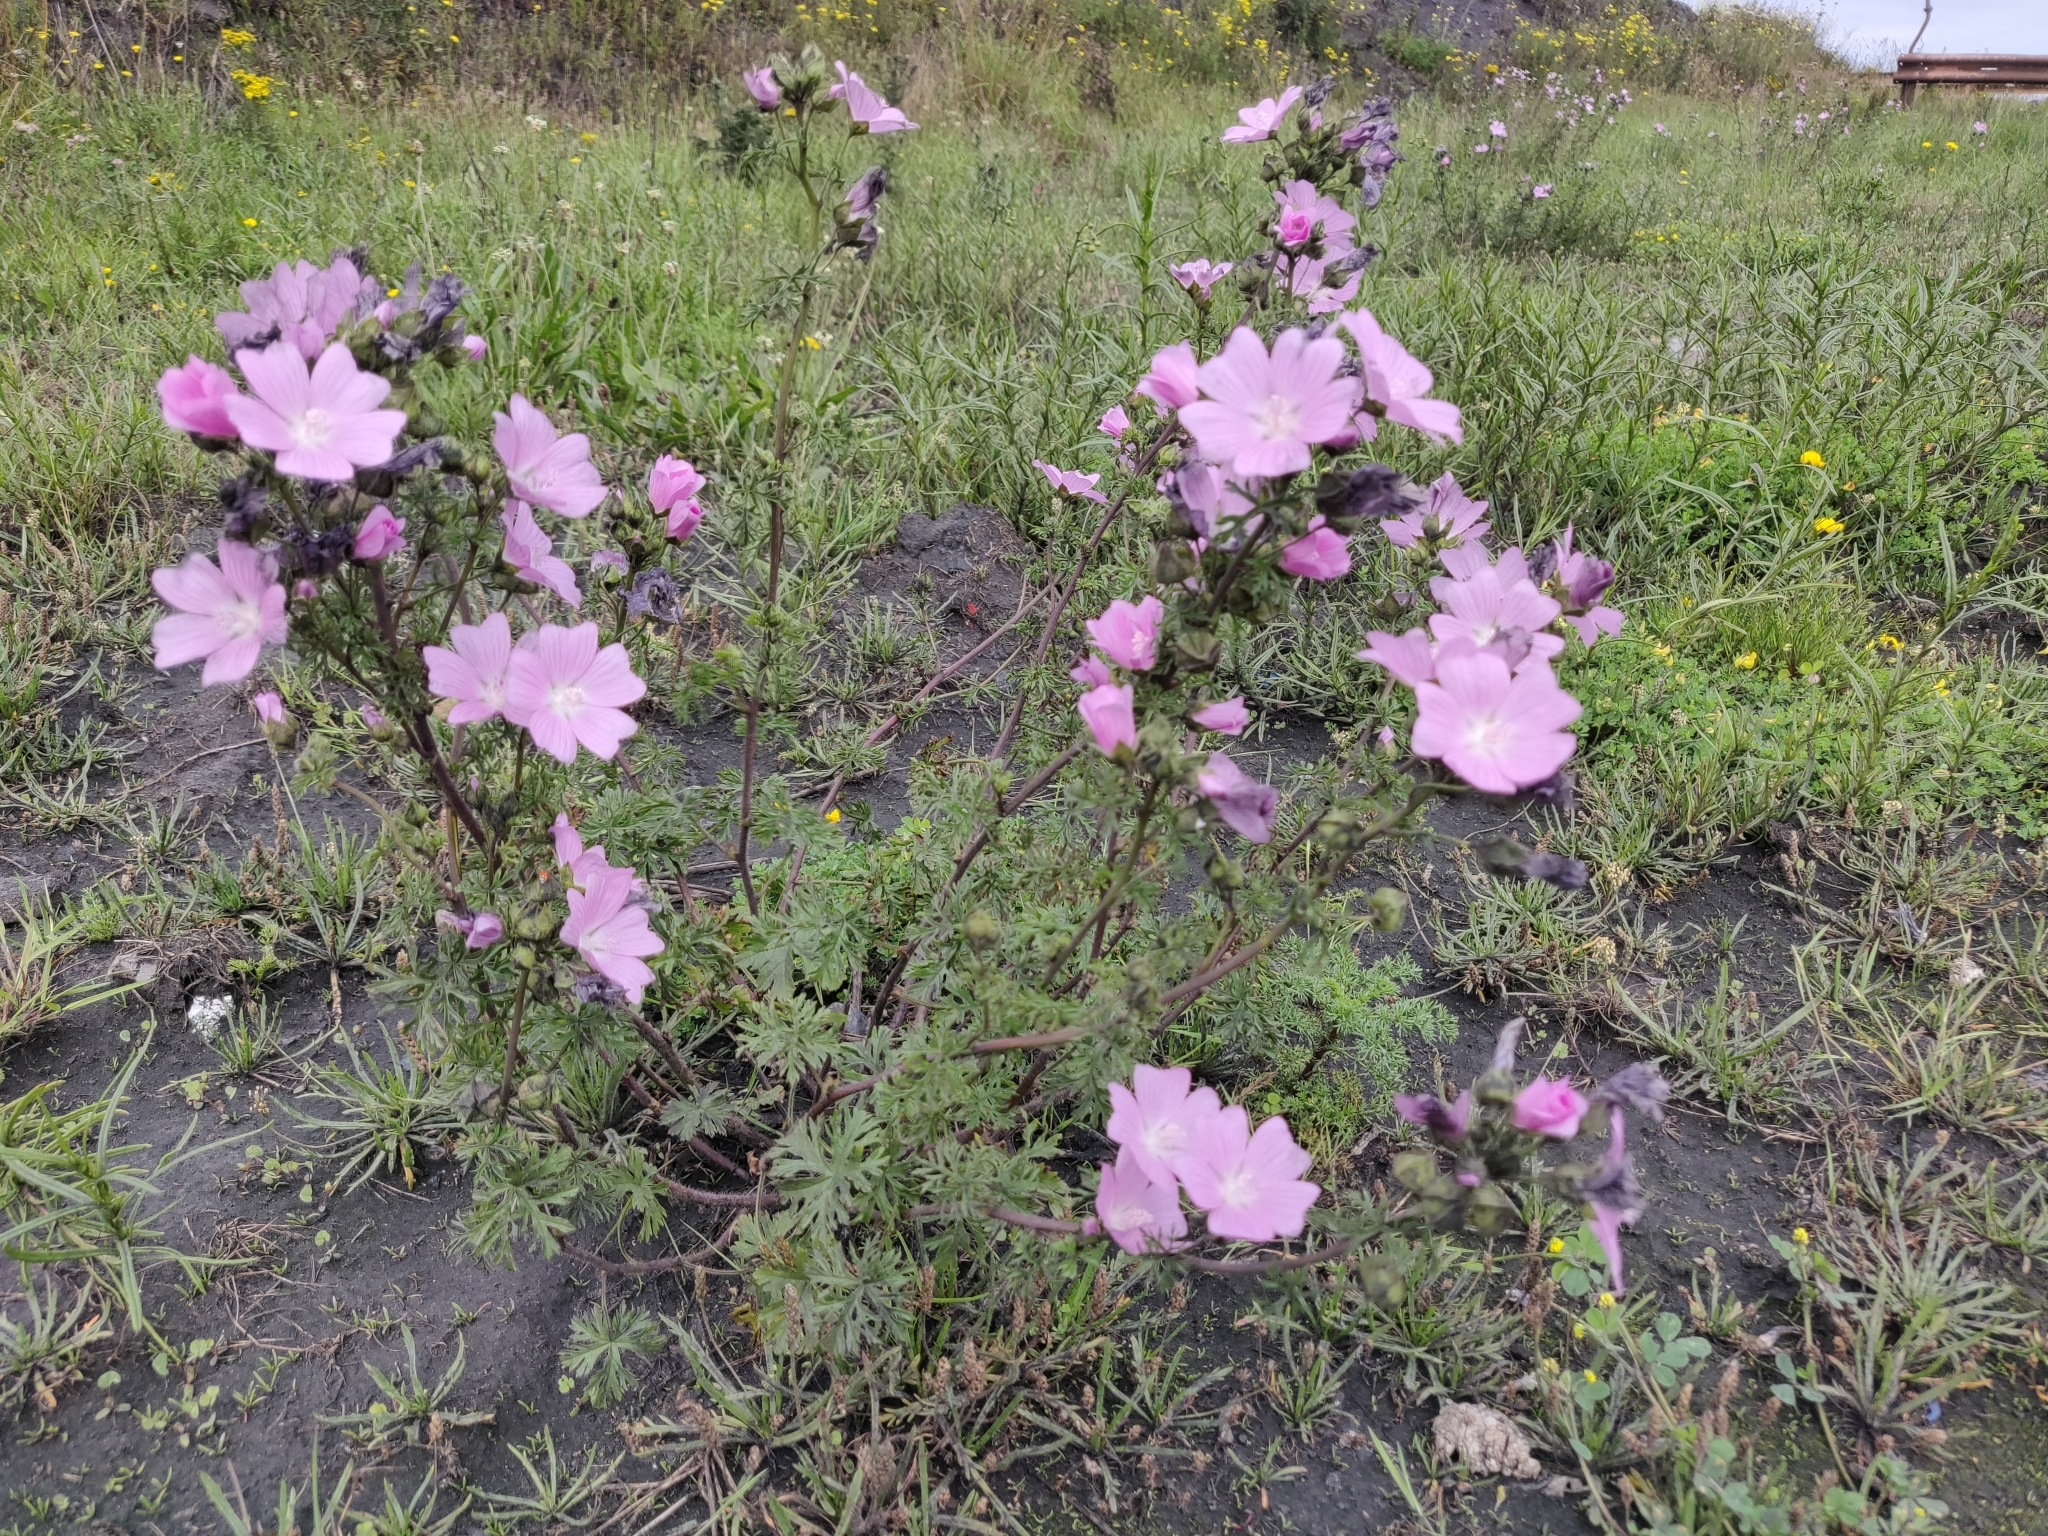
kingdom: Plantae
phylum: Tracheophyta
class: Magnoliopsida
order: Malvales
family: Malvaceae
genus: Malva
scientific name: Malva moschata
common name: Musk mallow
